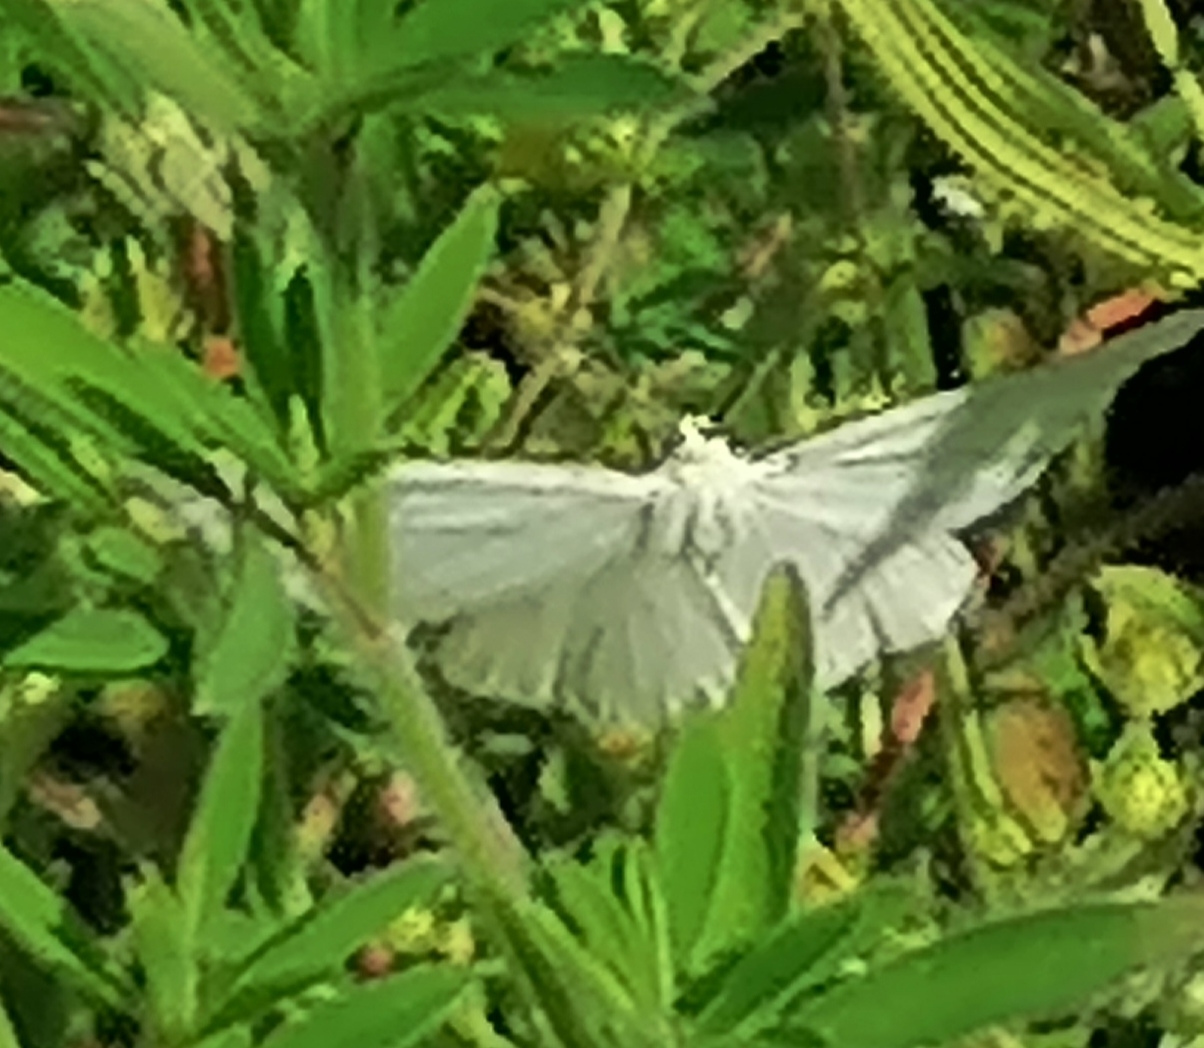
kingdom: Animalia
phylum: Arthropoda
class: Insecta
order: Lepidoptera
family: Geometridae
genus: Siona
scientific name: Siona lineata
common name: Black-veined moth
